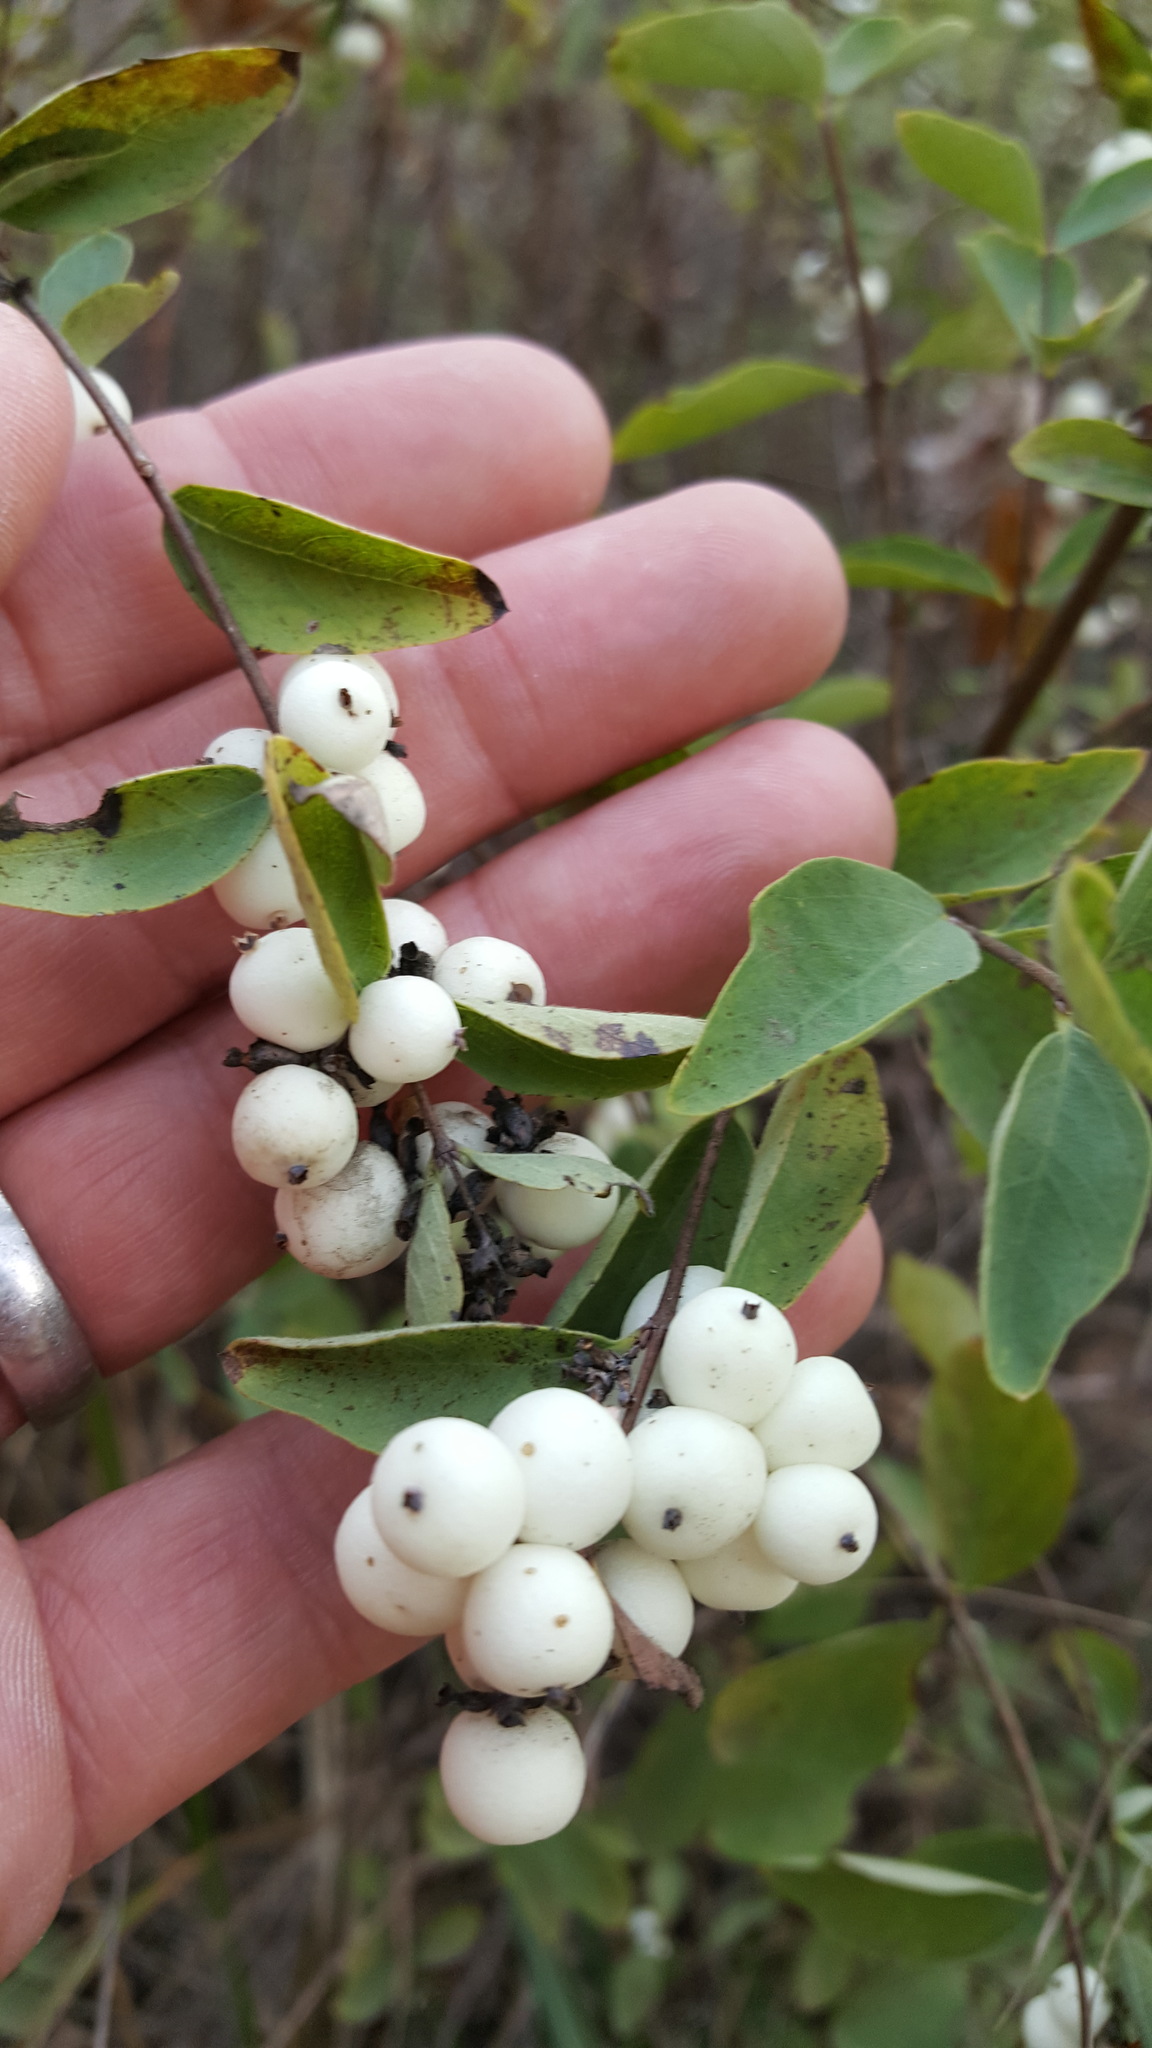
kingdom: Plantae
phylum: Tracheophyta
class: Magnoliopsida
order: Dipsacales
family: Caprifoliaceae
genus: Symphoricarpos
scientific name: Symphoricarpos albus
